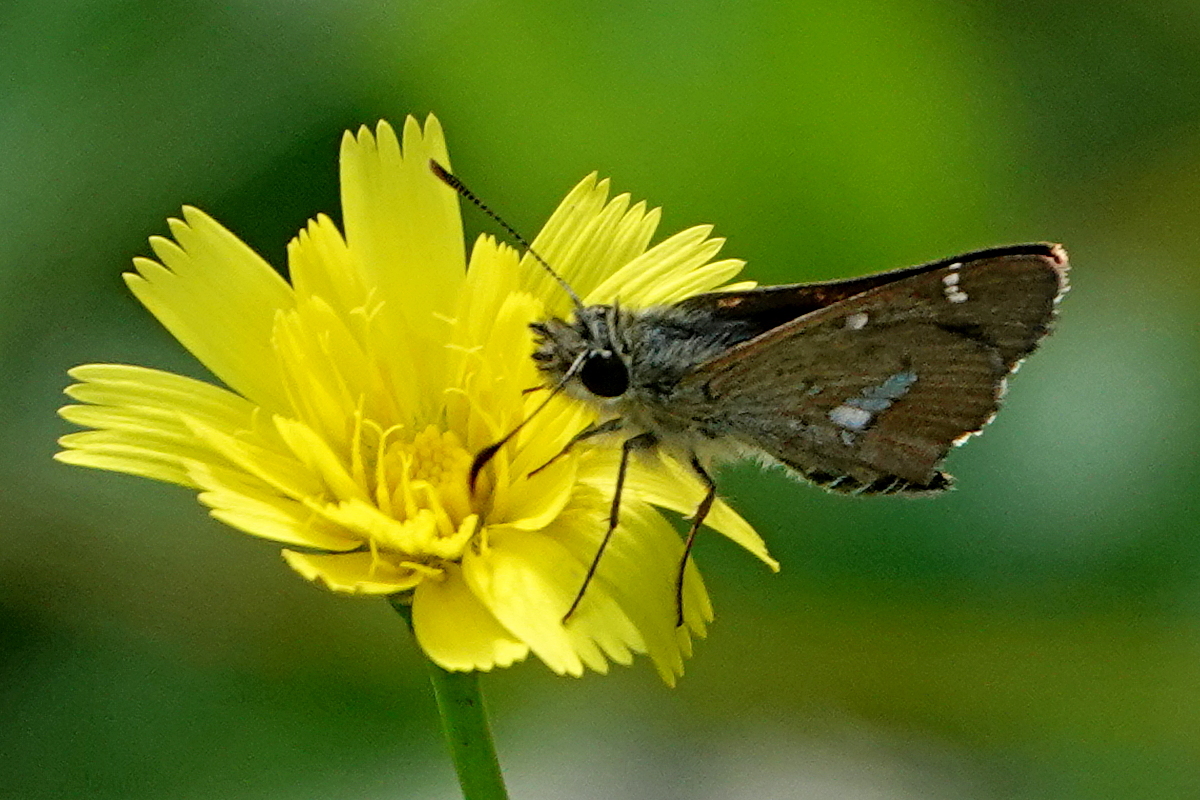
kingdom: Animalia
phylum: Arthropoda
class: Insecta
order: Lepidoptera
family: Hesperiidae
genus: Pasma
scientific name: Pasma tasmanicus
